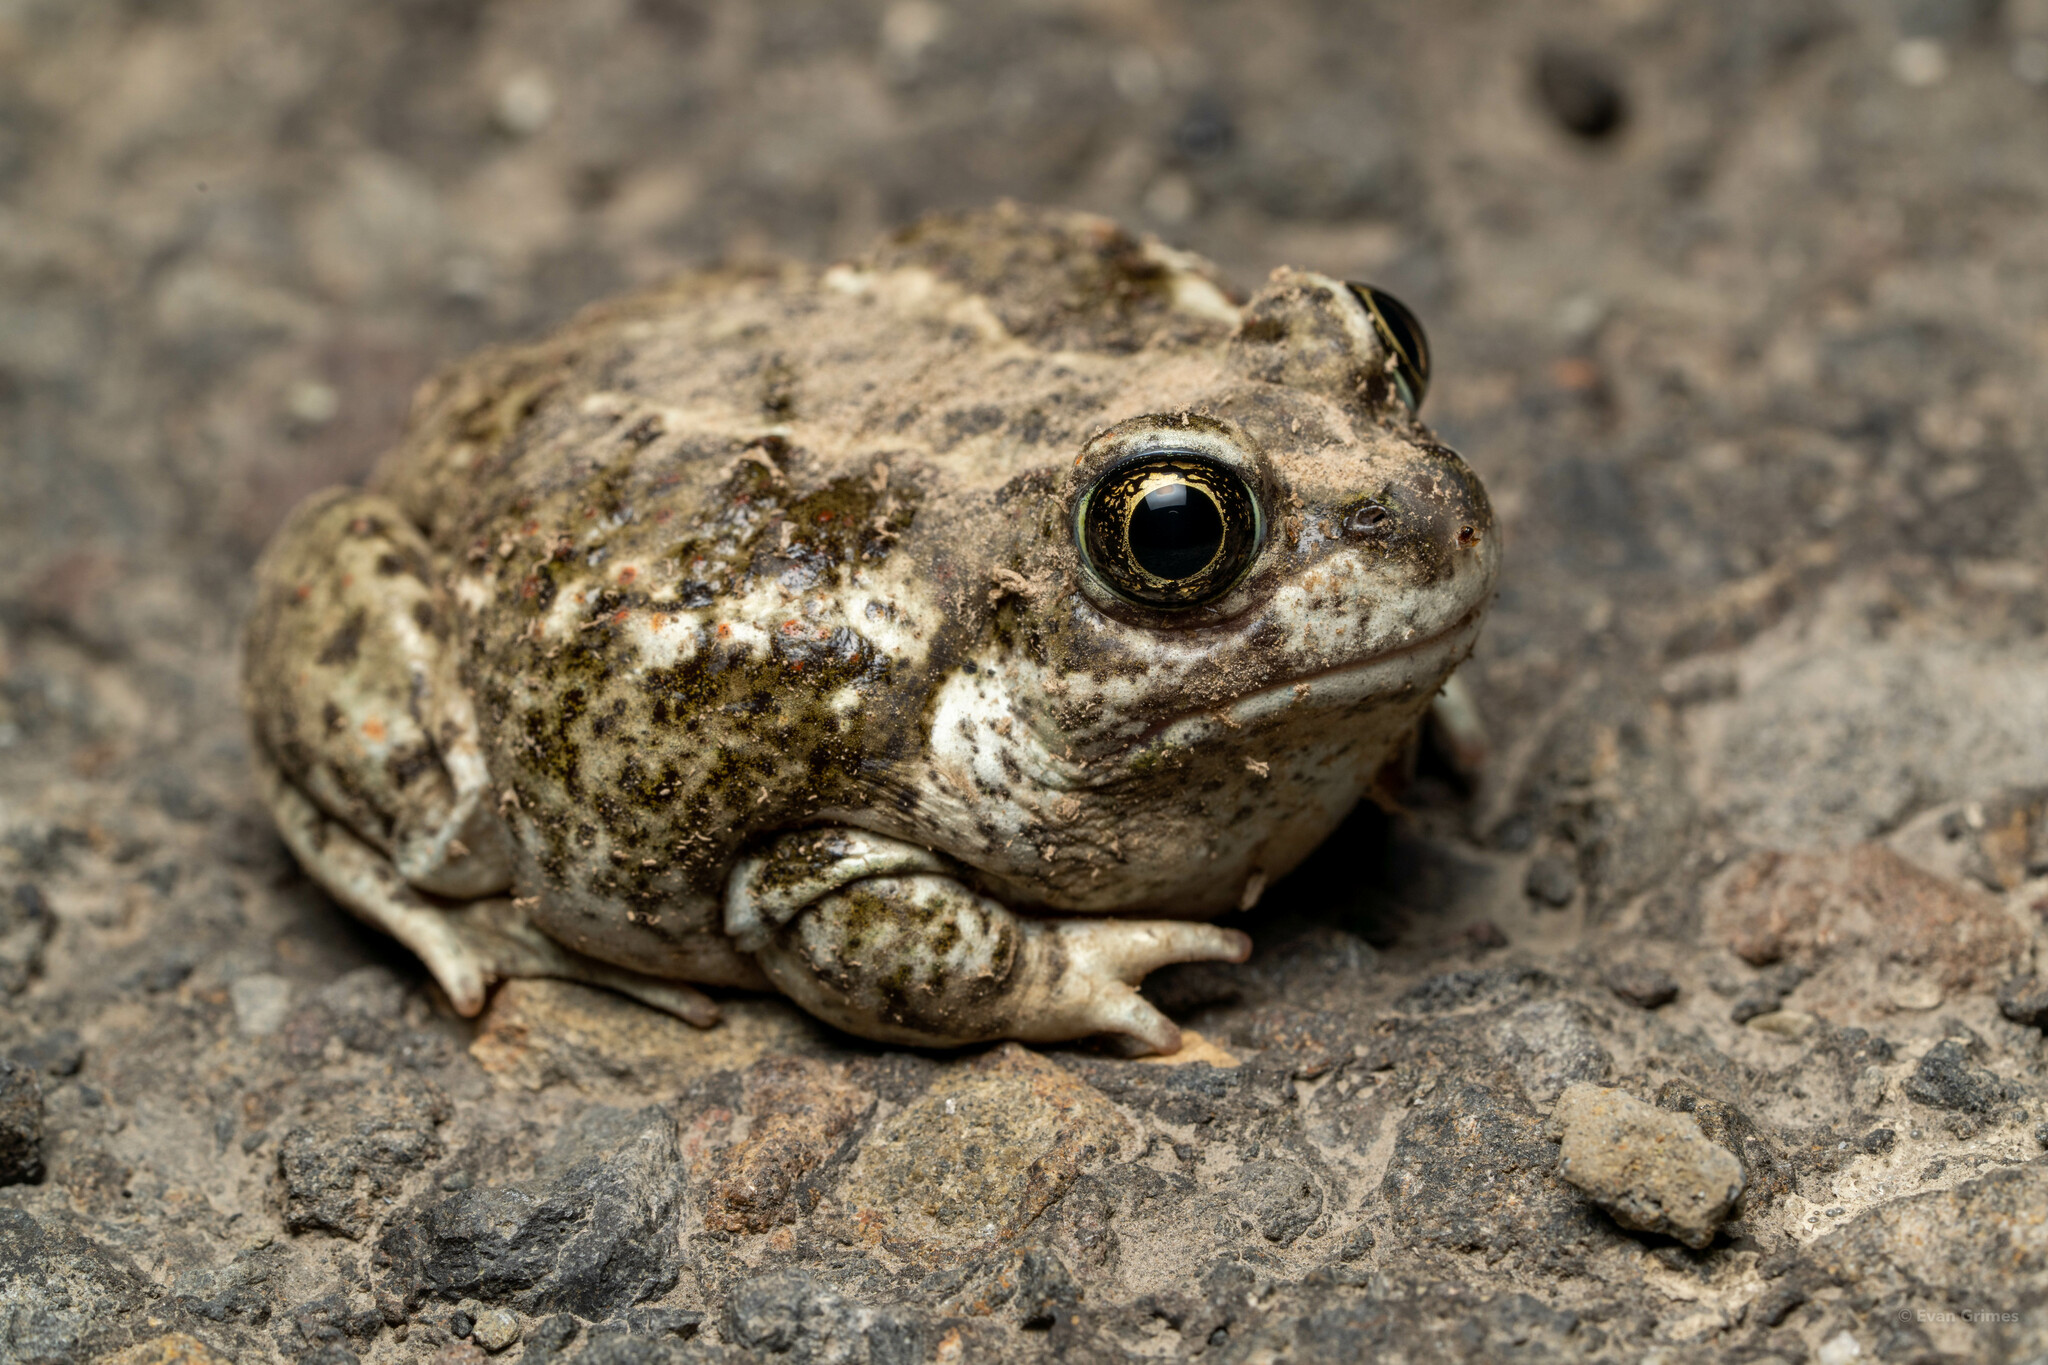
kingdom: Animalia
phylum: Chordata
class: Amphibia
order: Anura
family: Scaphiopodidae
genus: Spea
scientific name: Spea intermontana
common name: Great basin spadefoot
